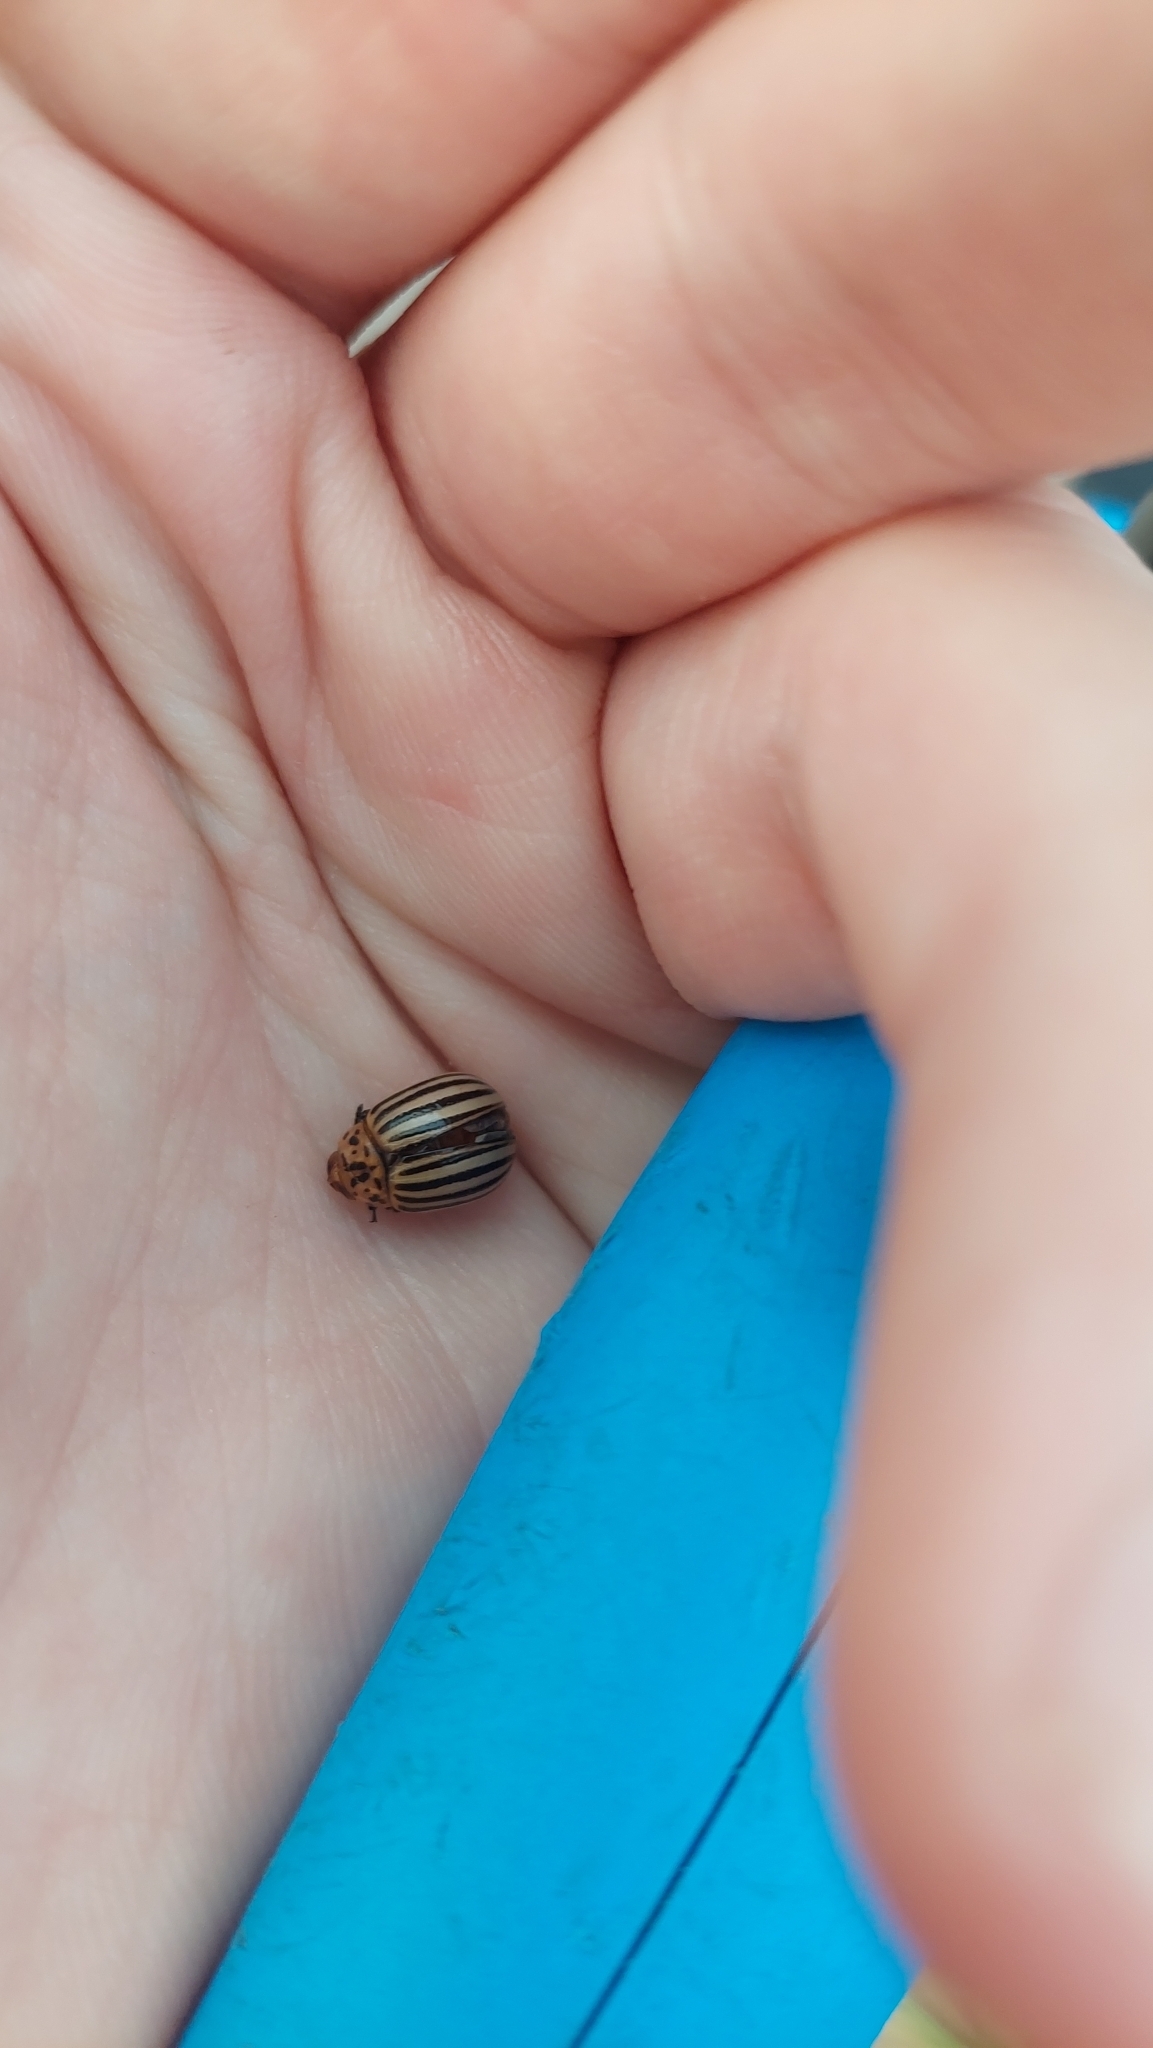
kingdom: Animalia
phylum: Arthropoda
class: Insecta
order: Coleoptera
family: Chrysomelidae
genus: Leptinotarsa
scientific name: Leptinotarsa decemlineata
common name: Colorado potato beetle
